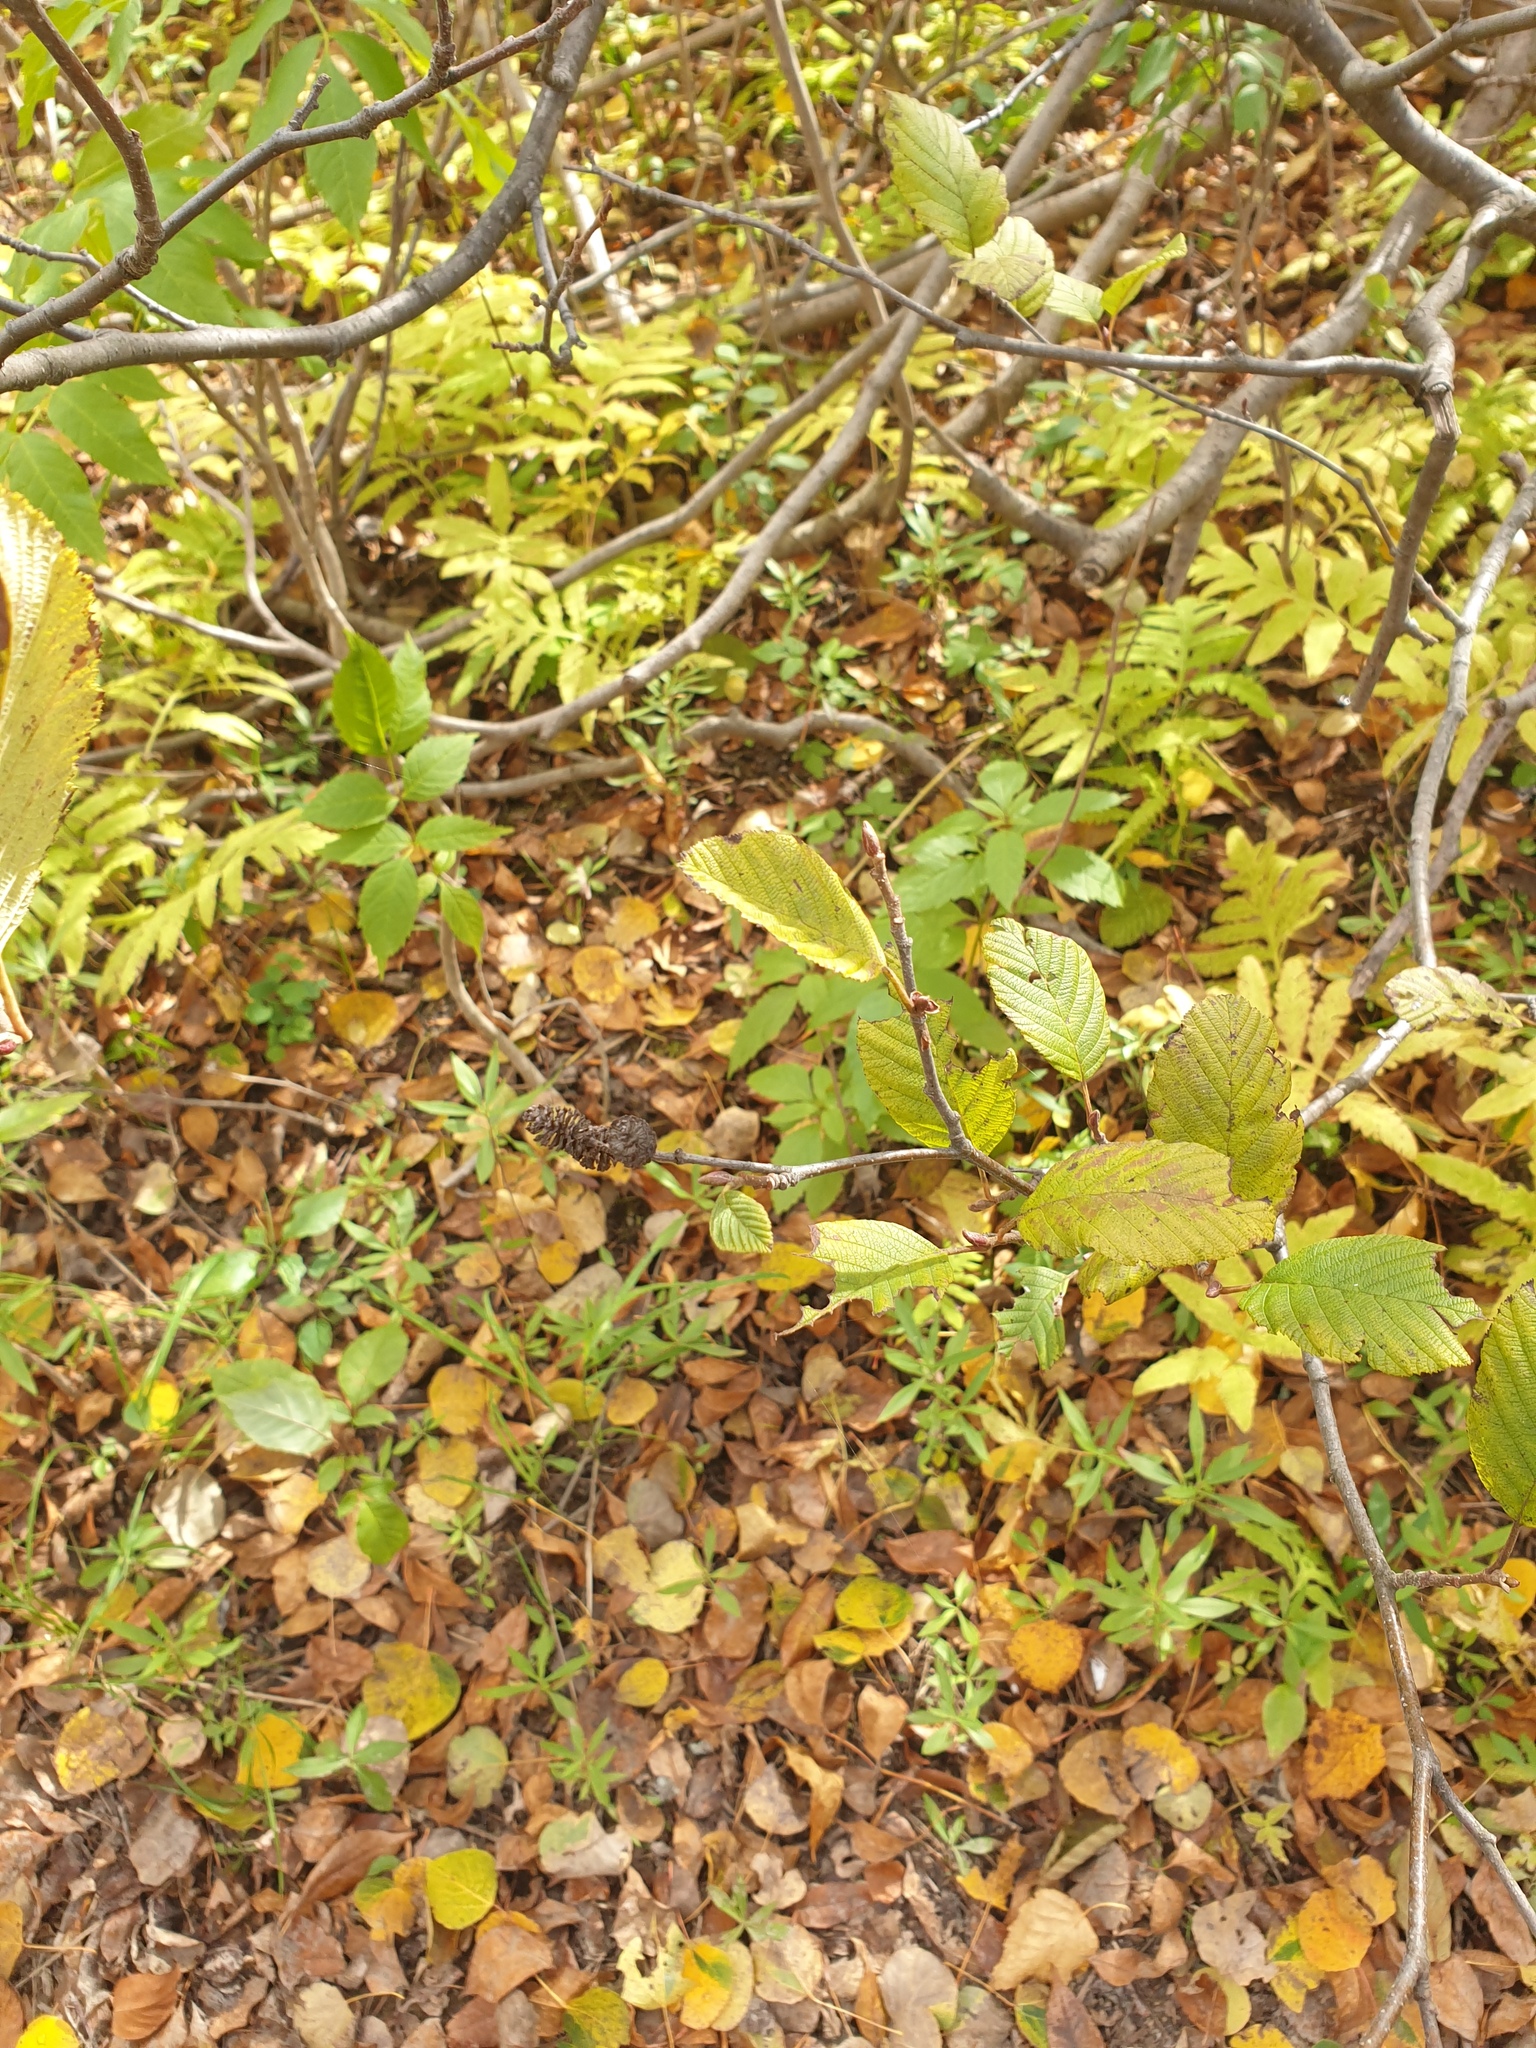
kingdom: Plantae
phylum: Tracheophyta
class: Magnoliopsida
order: Fagales
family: Betulaceae
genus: Alnus
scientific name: Alnus incana
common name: Grey alder
